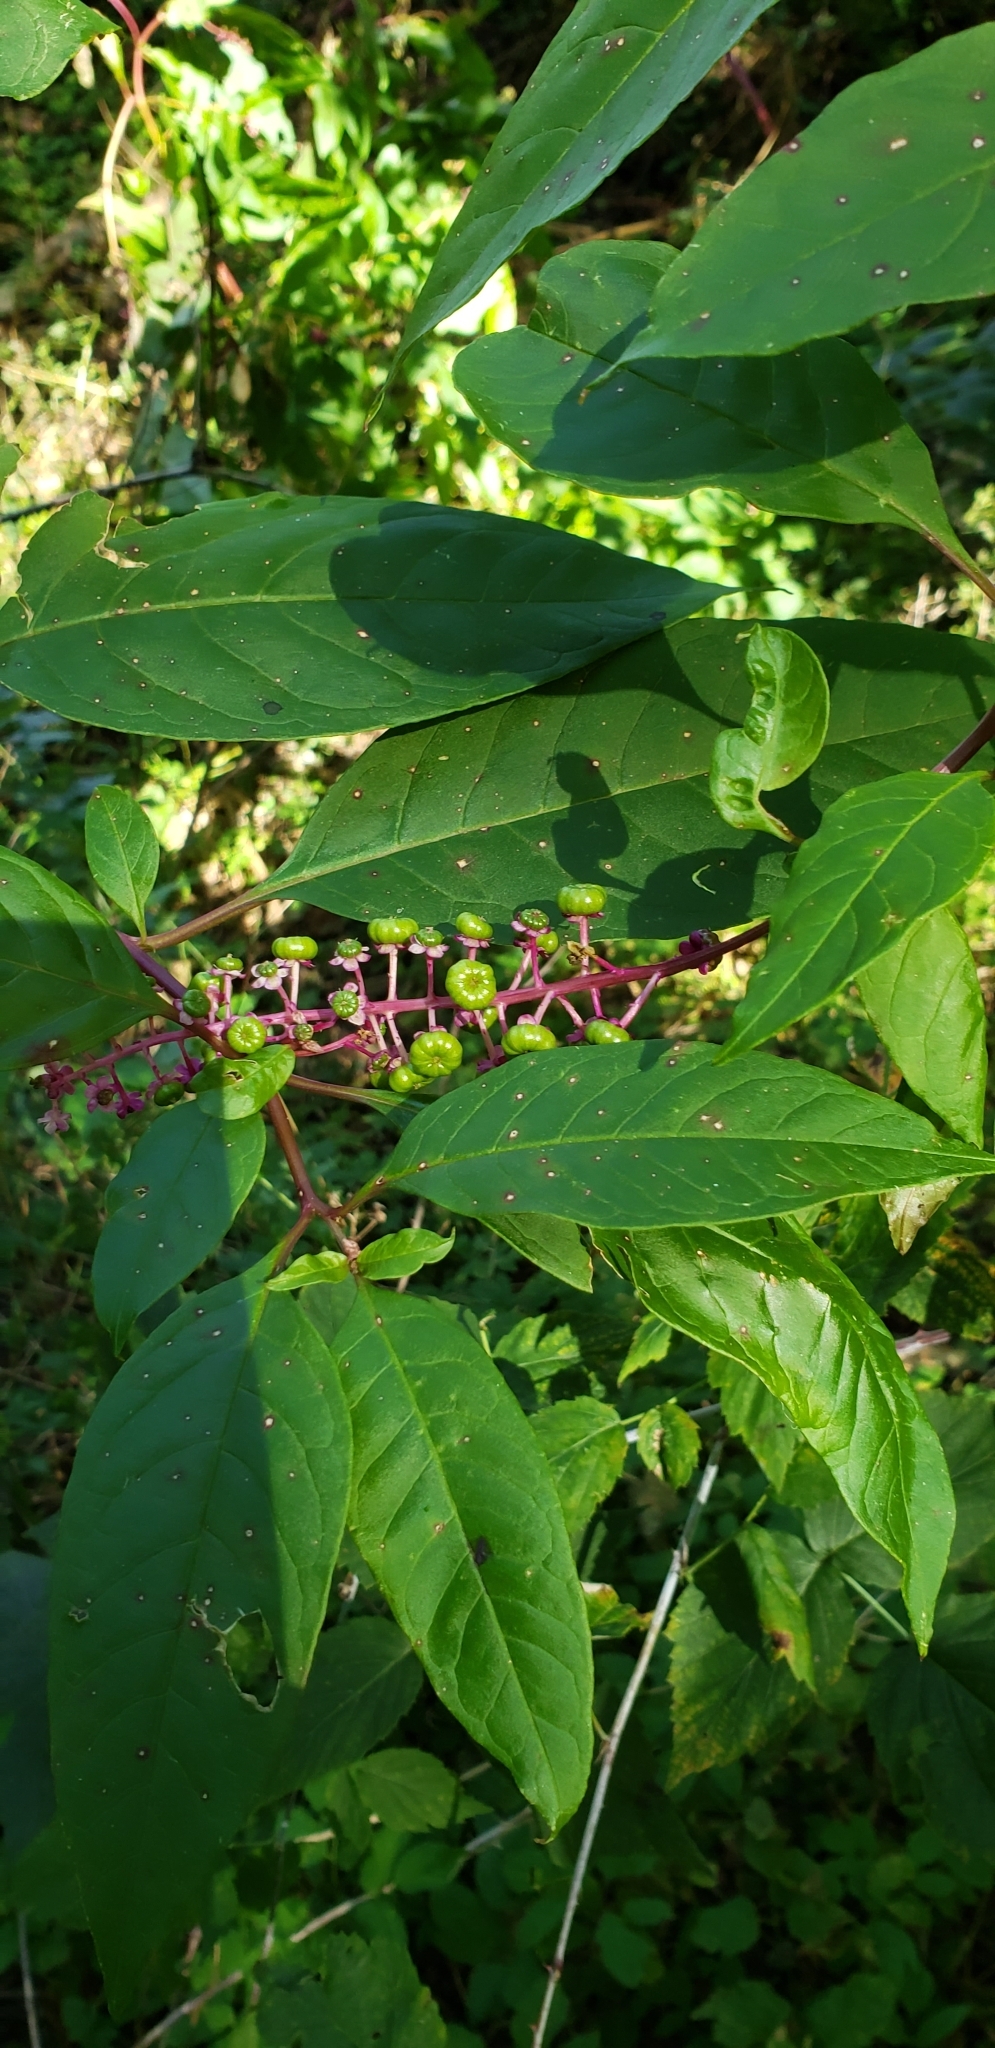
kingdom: Plantae
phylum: Tracheophyta
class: Magnoliopsida
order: Caryophyllales
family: Phytolaccaceae
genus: Phytolacca
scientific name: Phytolacca americana
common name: American pokeweed
